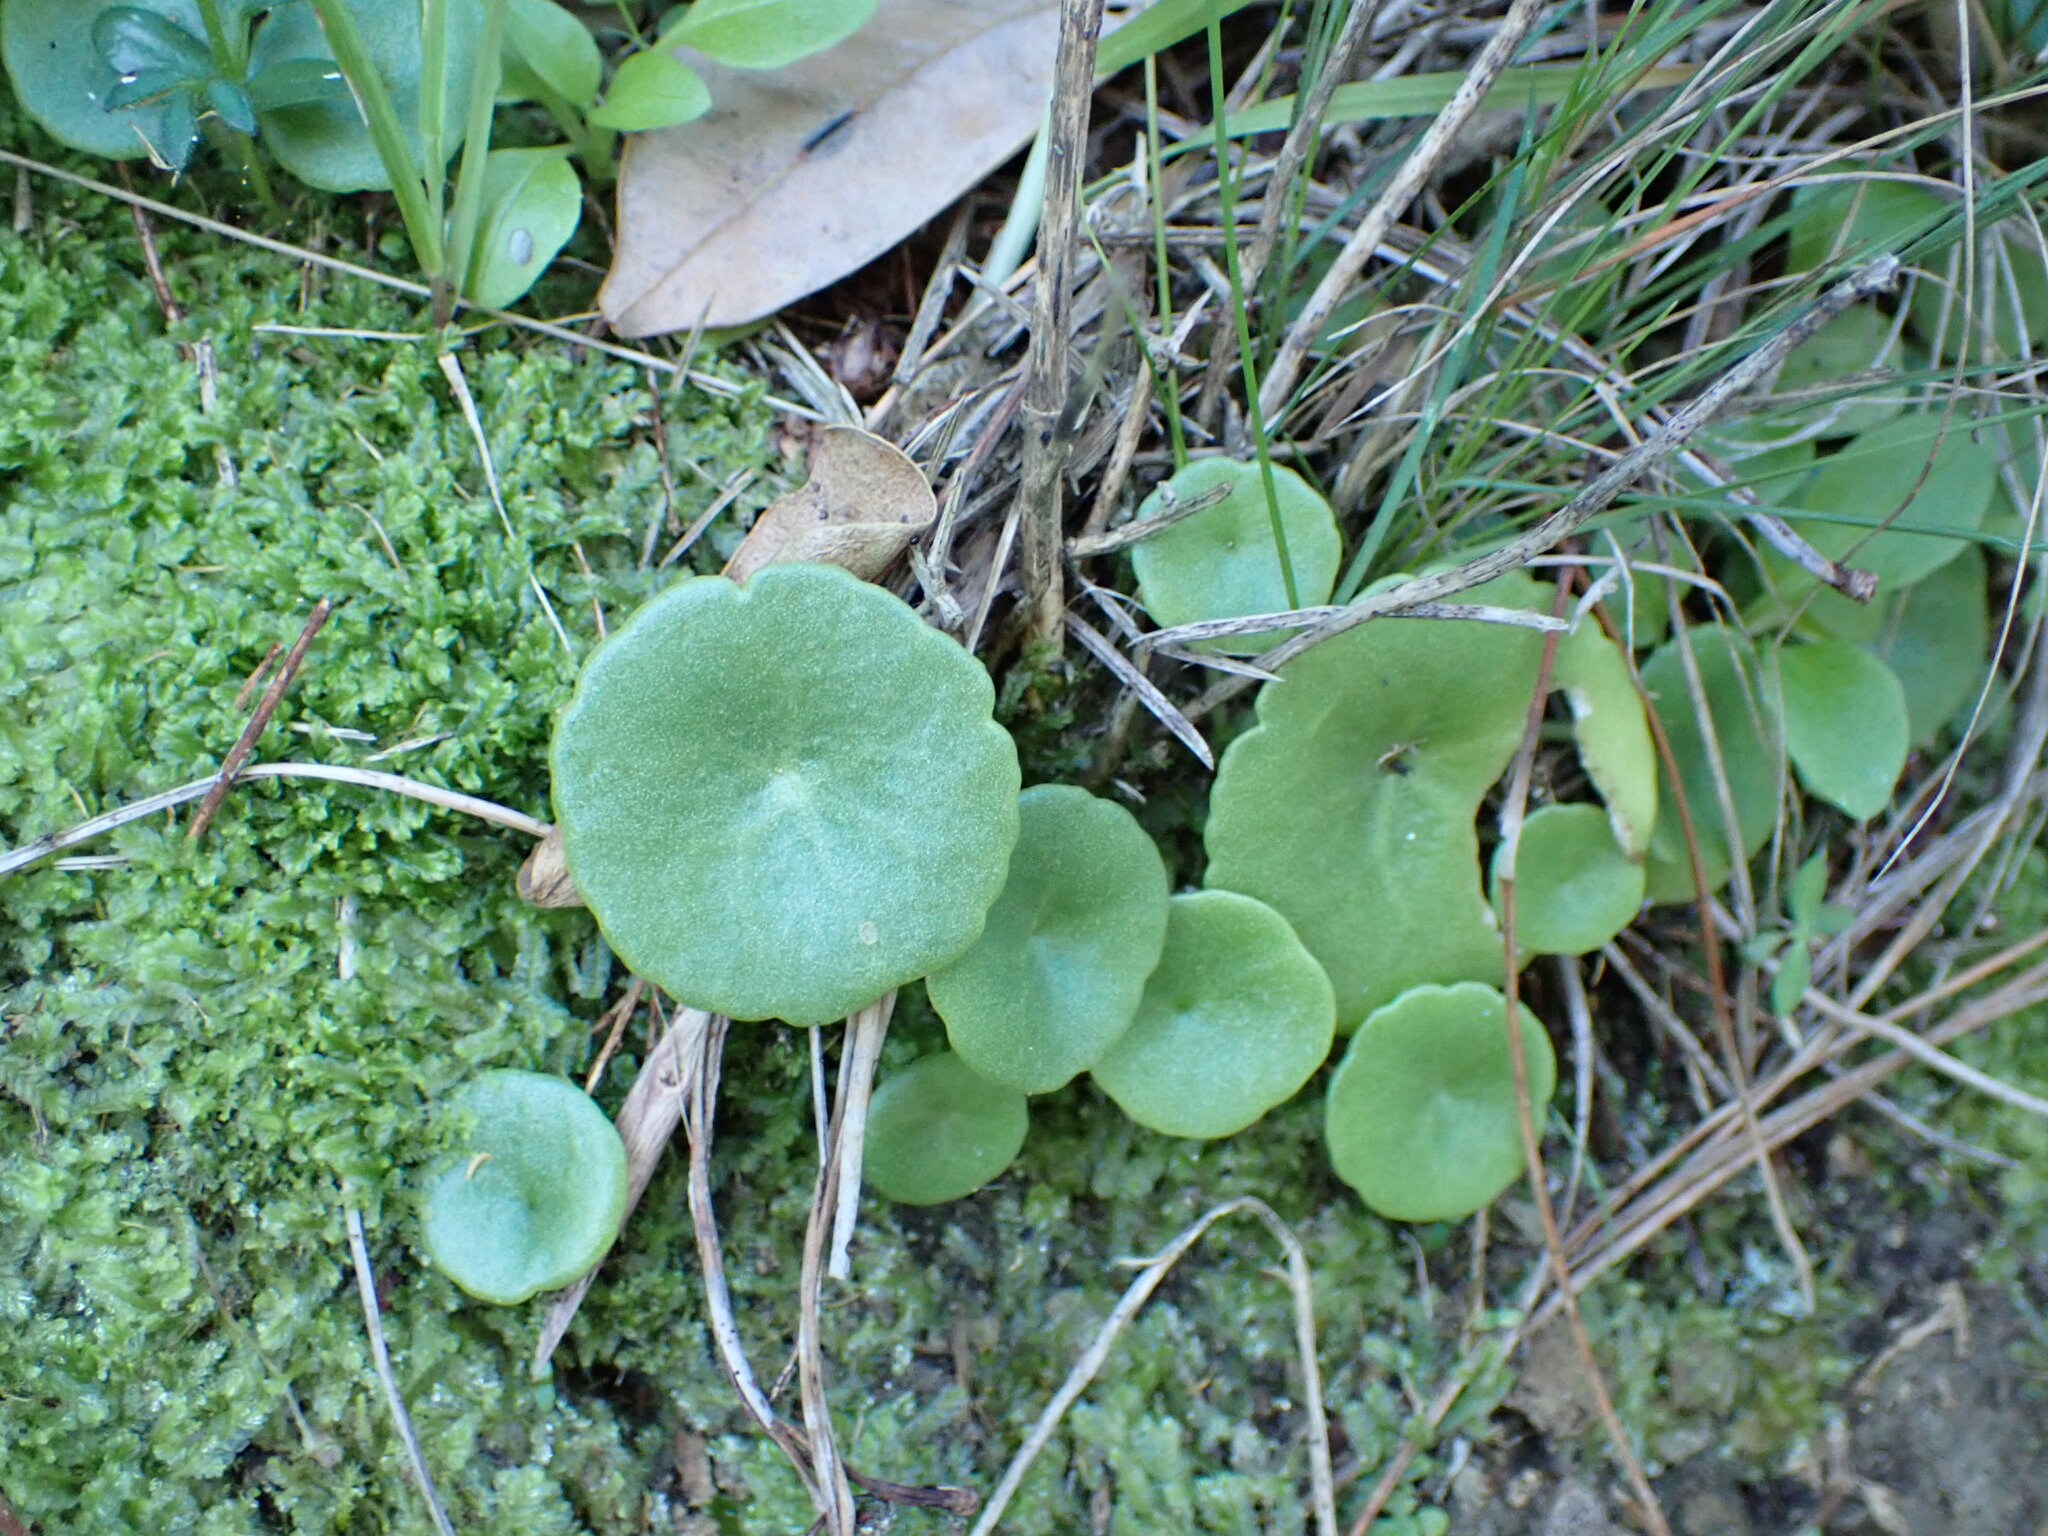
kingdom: Plantae
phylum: Tracheophyta
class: Magnoliopsida
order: Saxifragales
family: Crassulaceae
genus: Umbilicus
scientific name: Umbilicus rupestris
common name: Navelwort
